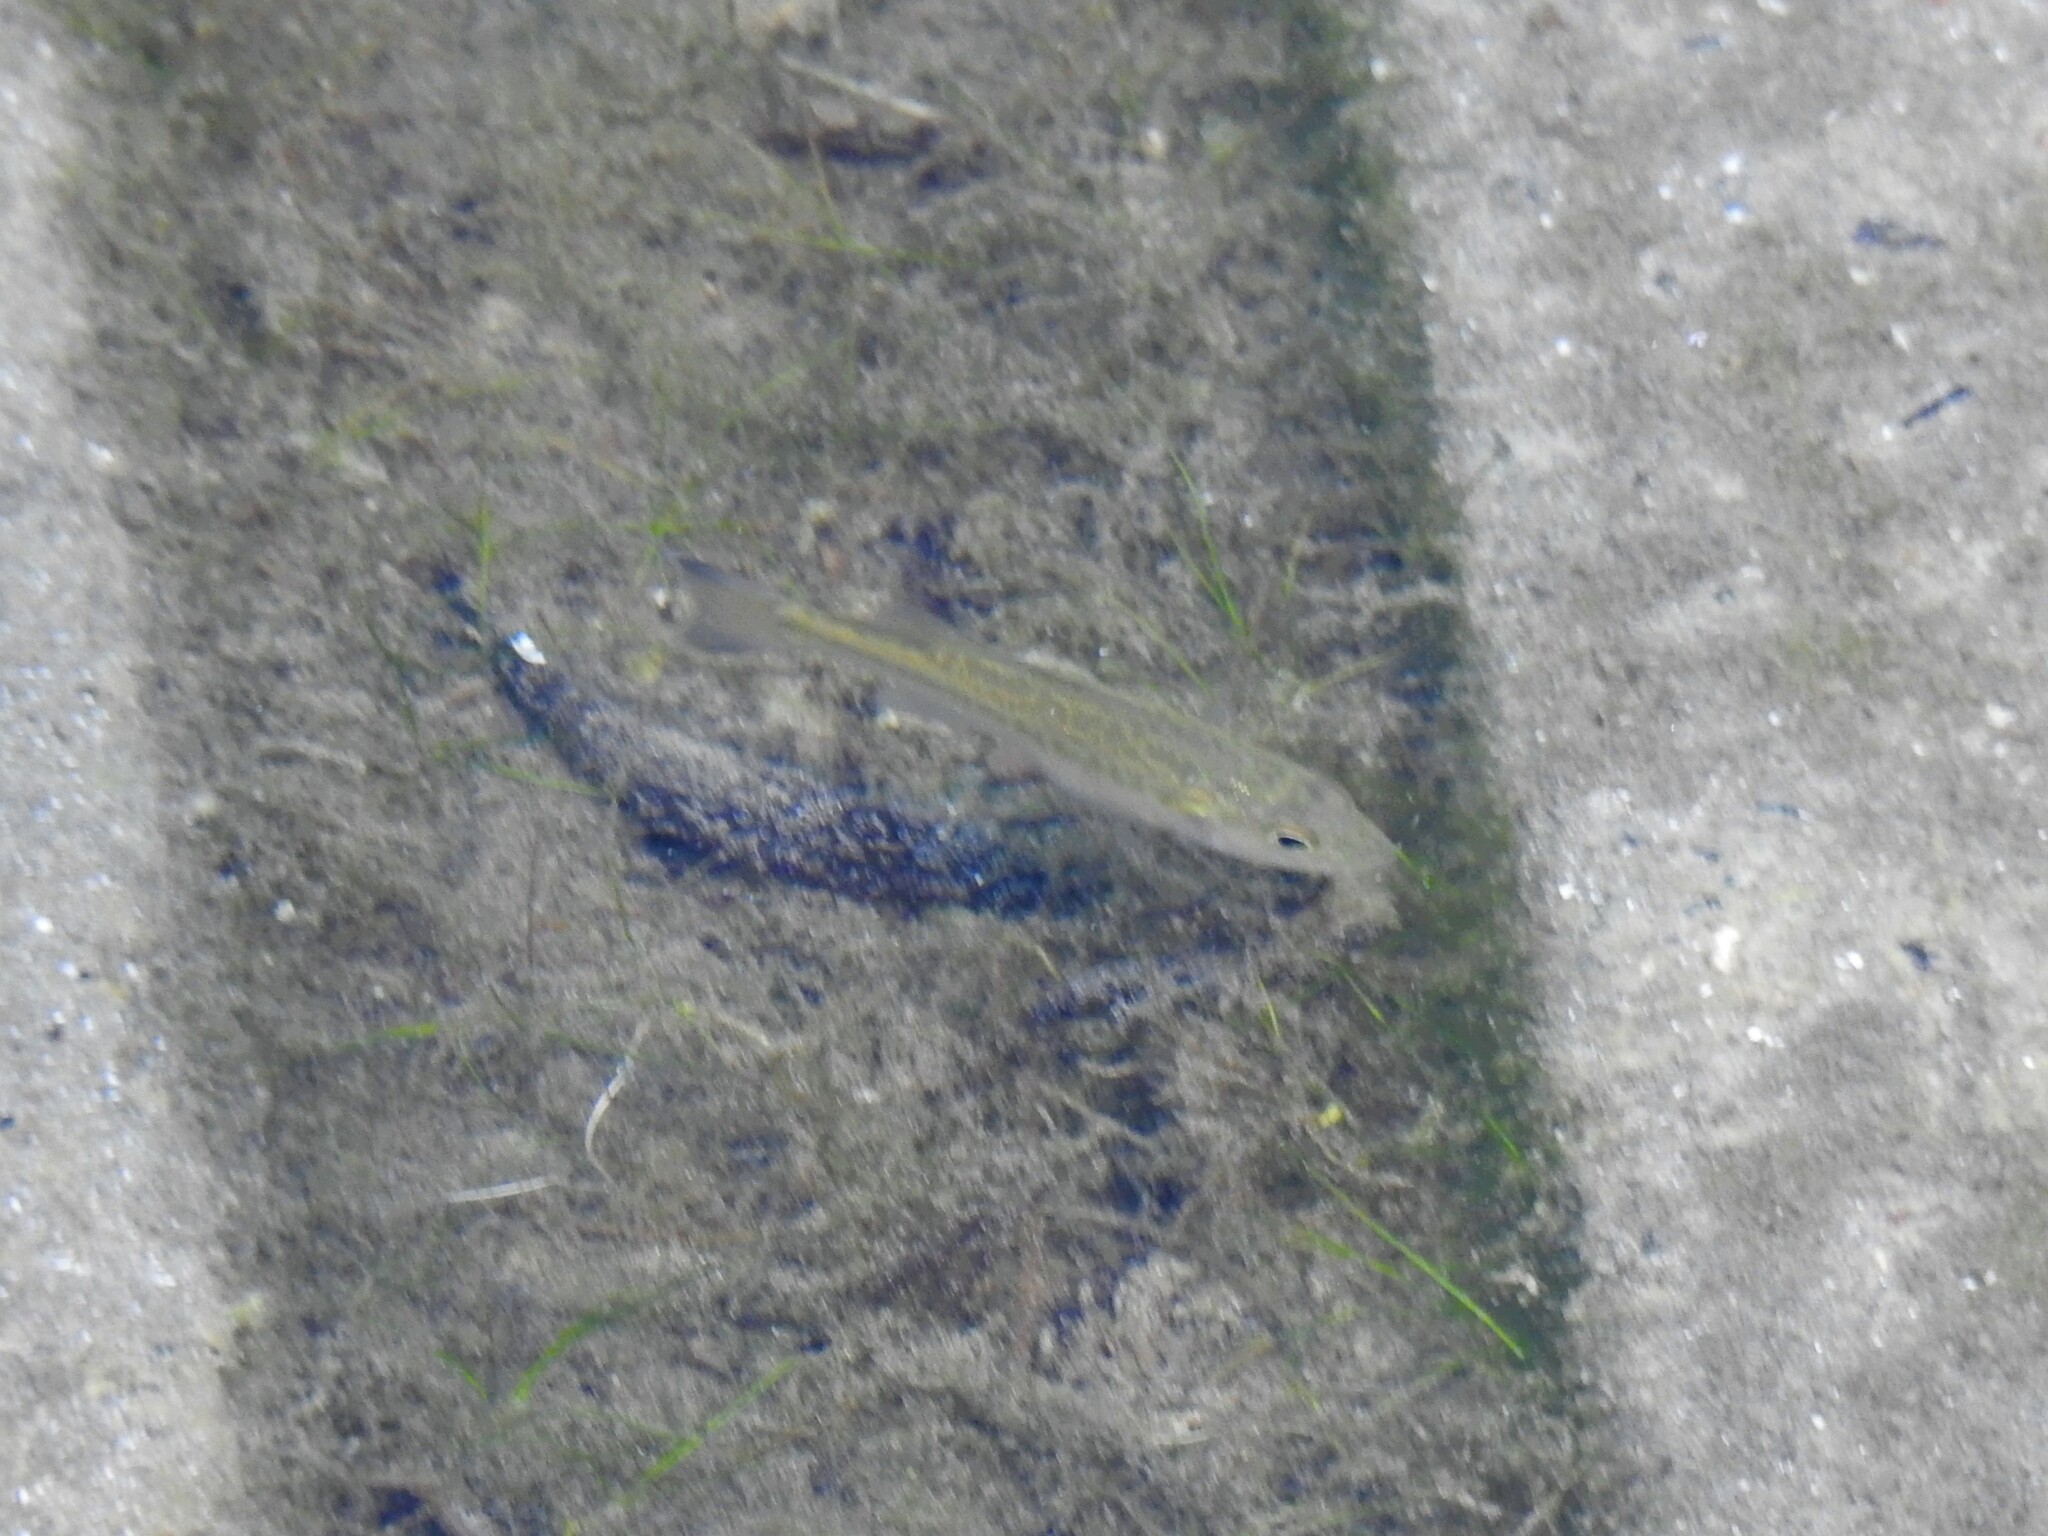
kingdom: Animalia
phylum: Chordata
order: Perciformes
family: Centrarchidae
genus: Micropterus
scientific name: Micropterus
